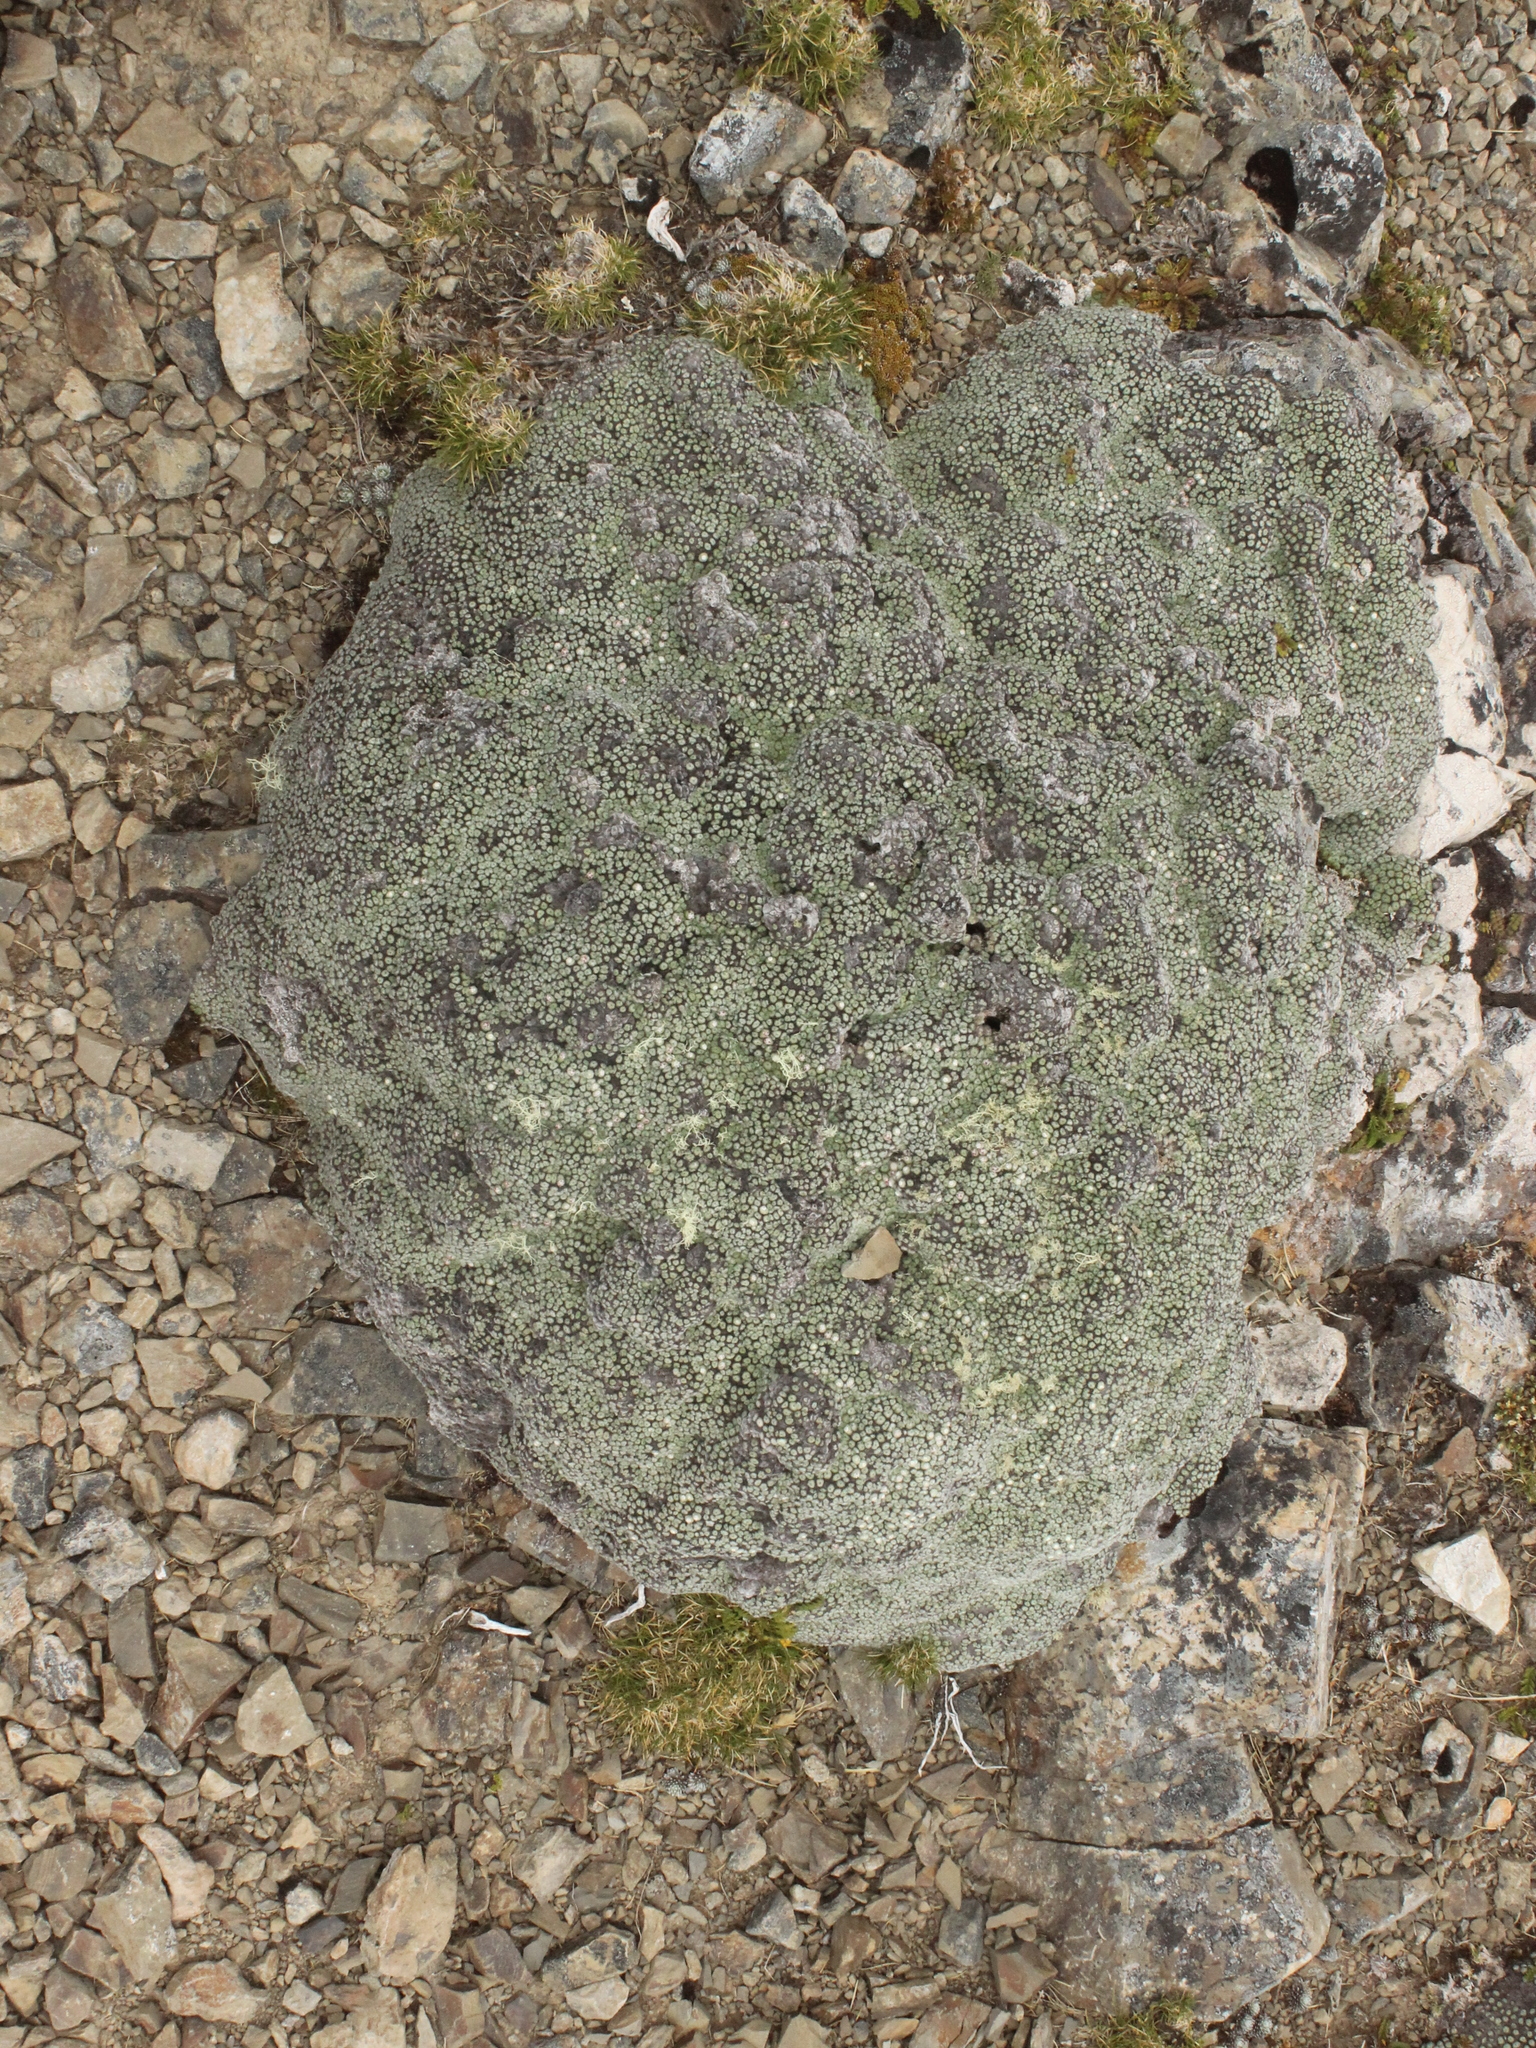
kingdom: Plantae
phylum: Tracheophyta
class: Magnoliopsida
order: Asterales
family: Asteraceae
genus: Raoulia
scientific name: Raoulia rubra
